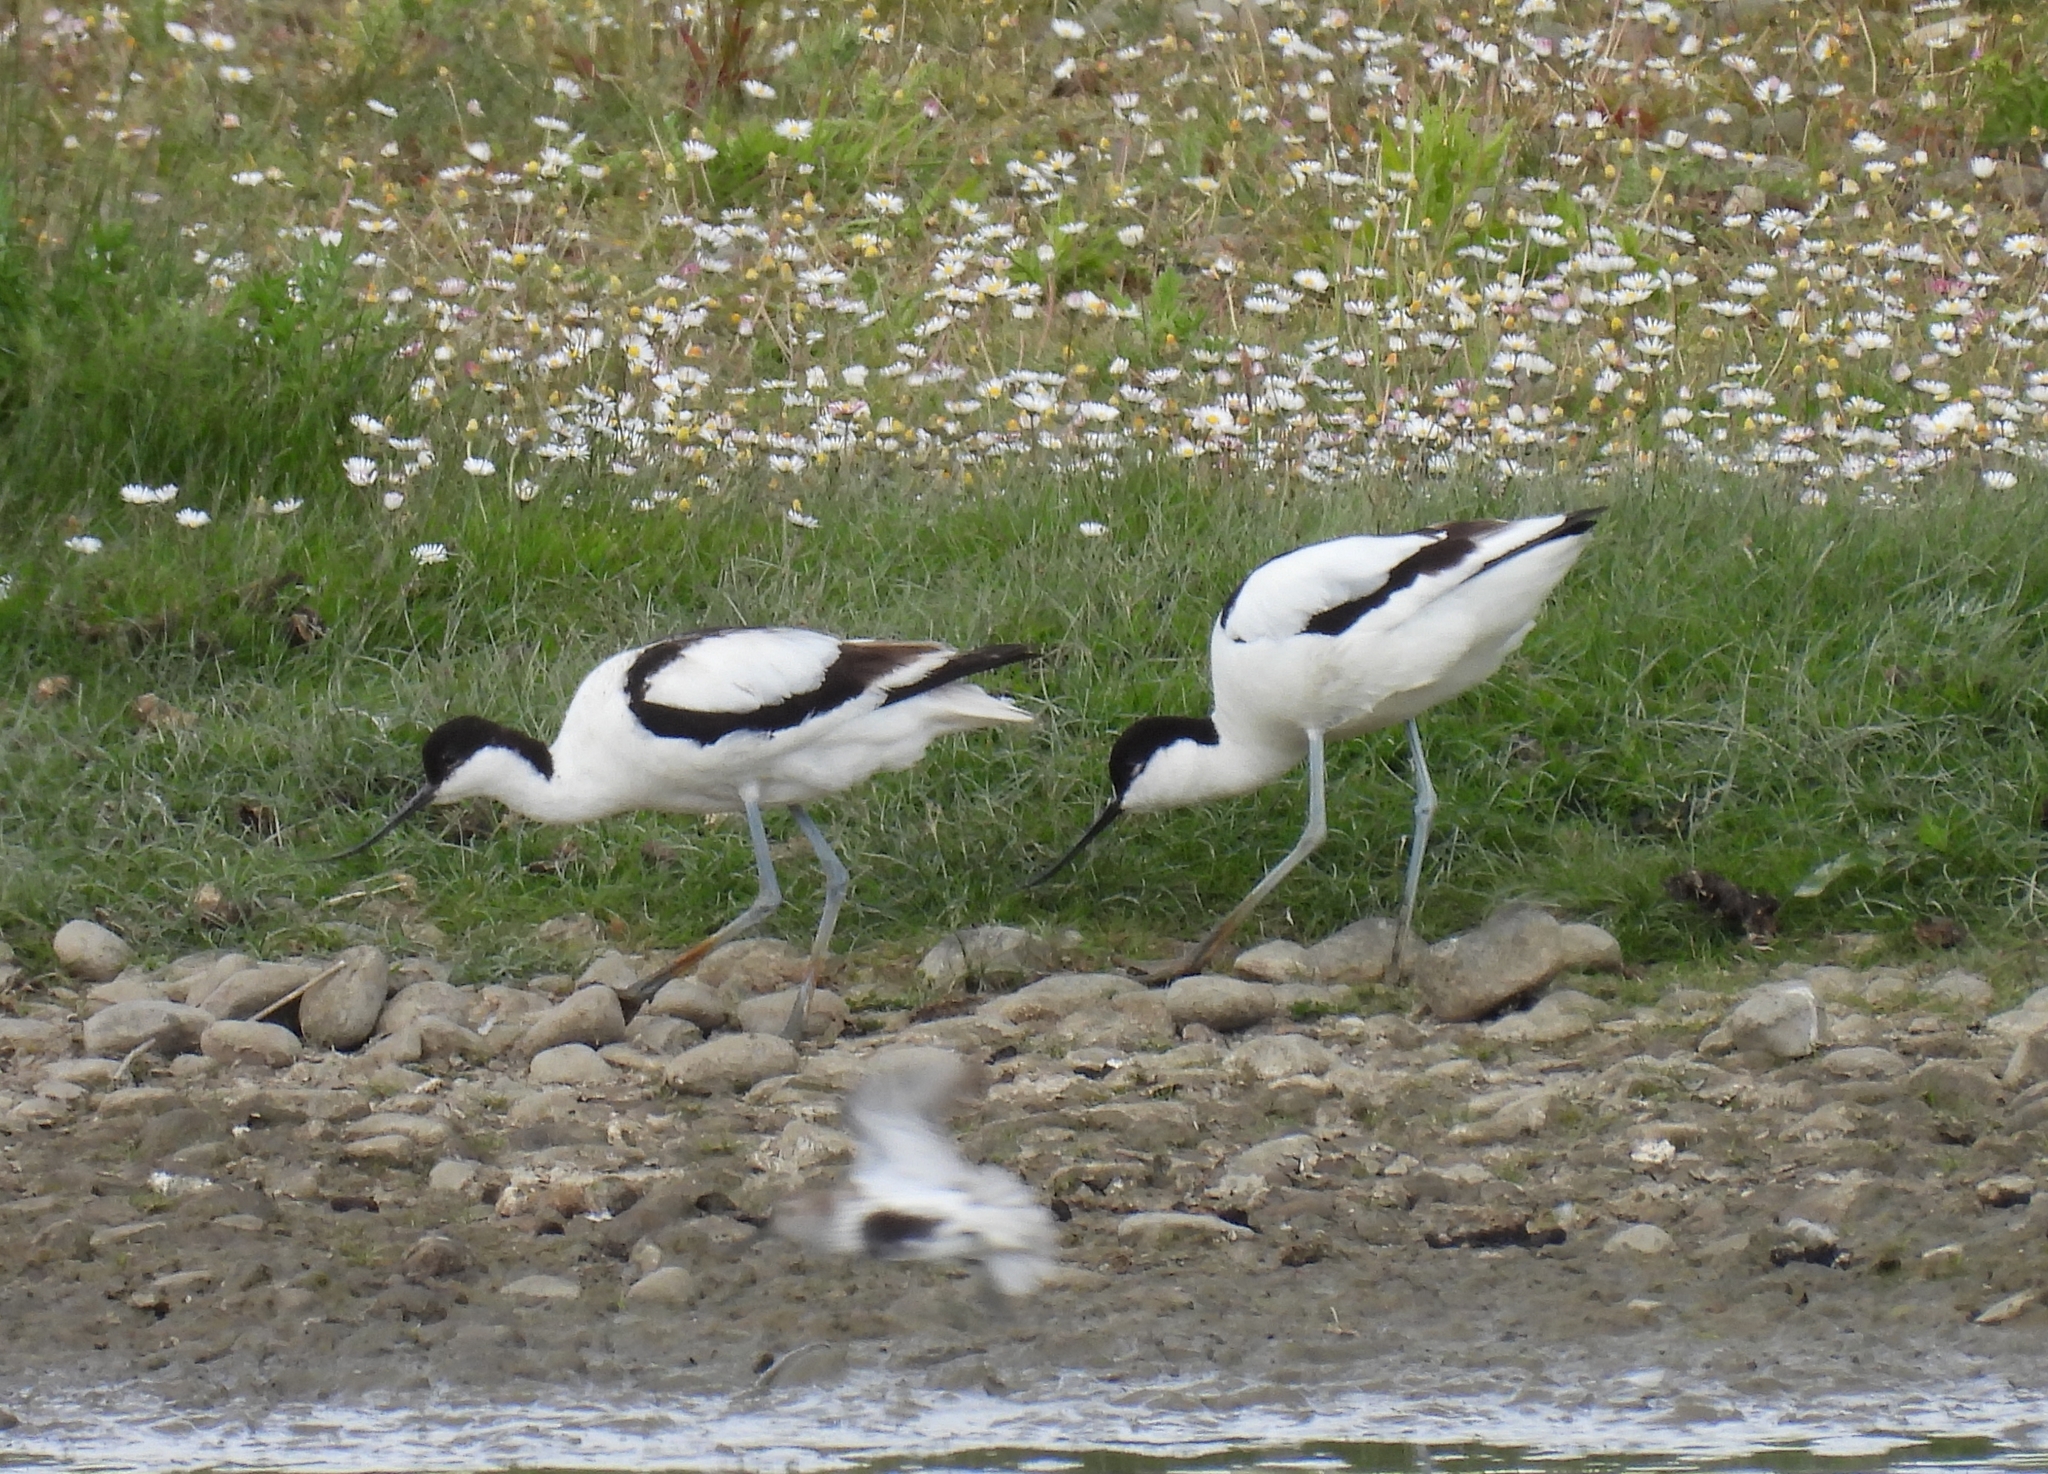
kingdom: Animalia
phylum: Chordata
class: Aves
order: Charadriiformes
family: Recurvirostridae
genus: Recurvirostra
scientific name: Recurvirostra avosetta
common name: Pied avocet
